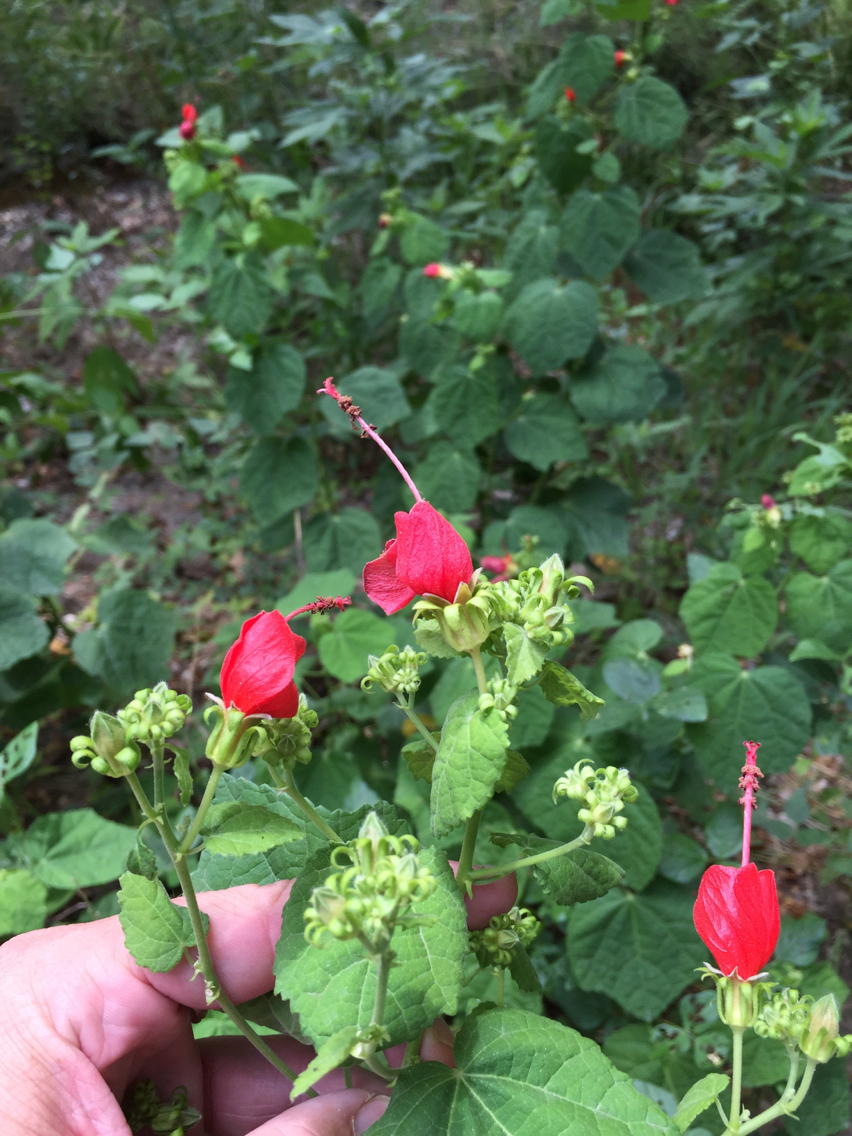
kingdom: Plantae
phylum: Tracheophyta
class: Magnoliopsida
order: Malvales
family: Malvaceae
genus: Malvaviscus
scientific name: Malvaviscus arboreus
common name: Wax mallow
